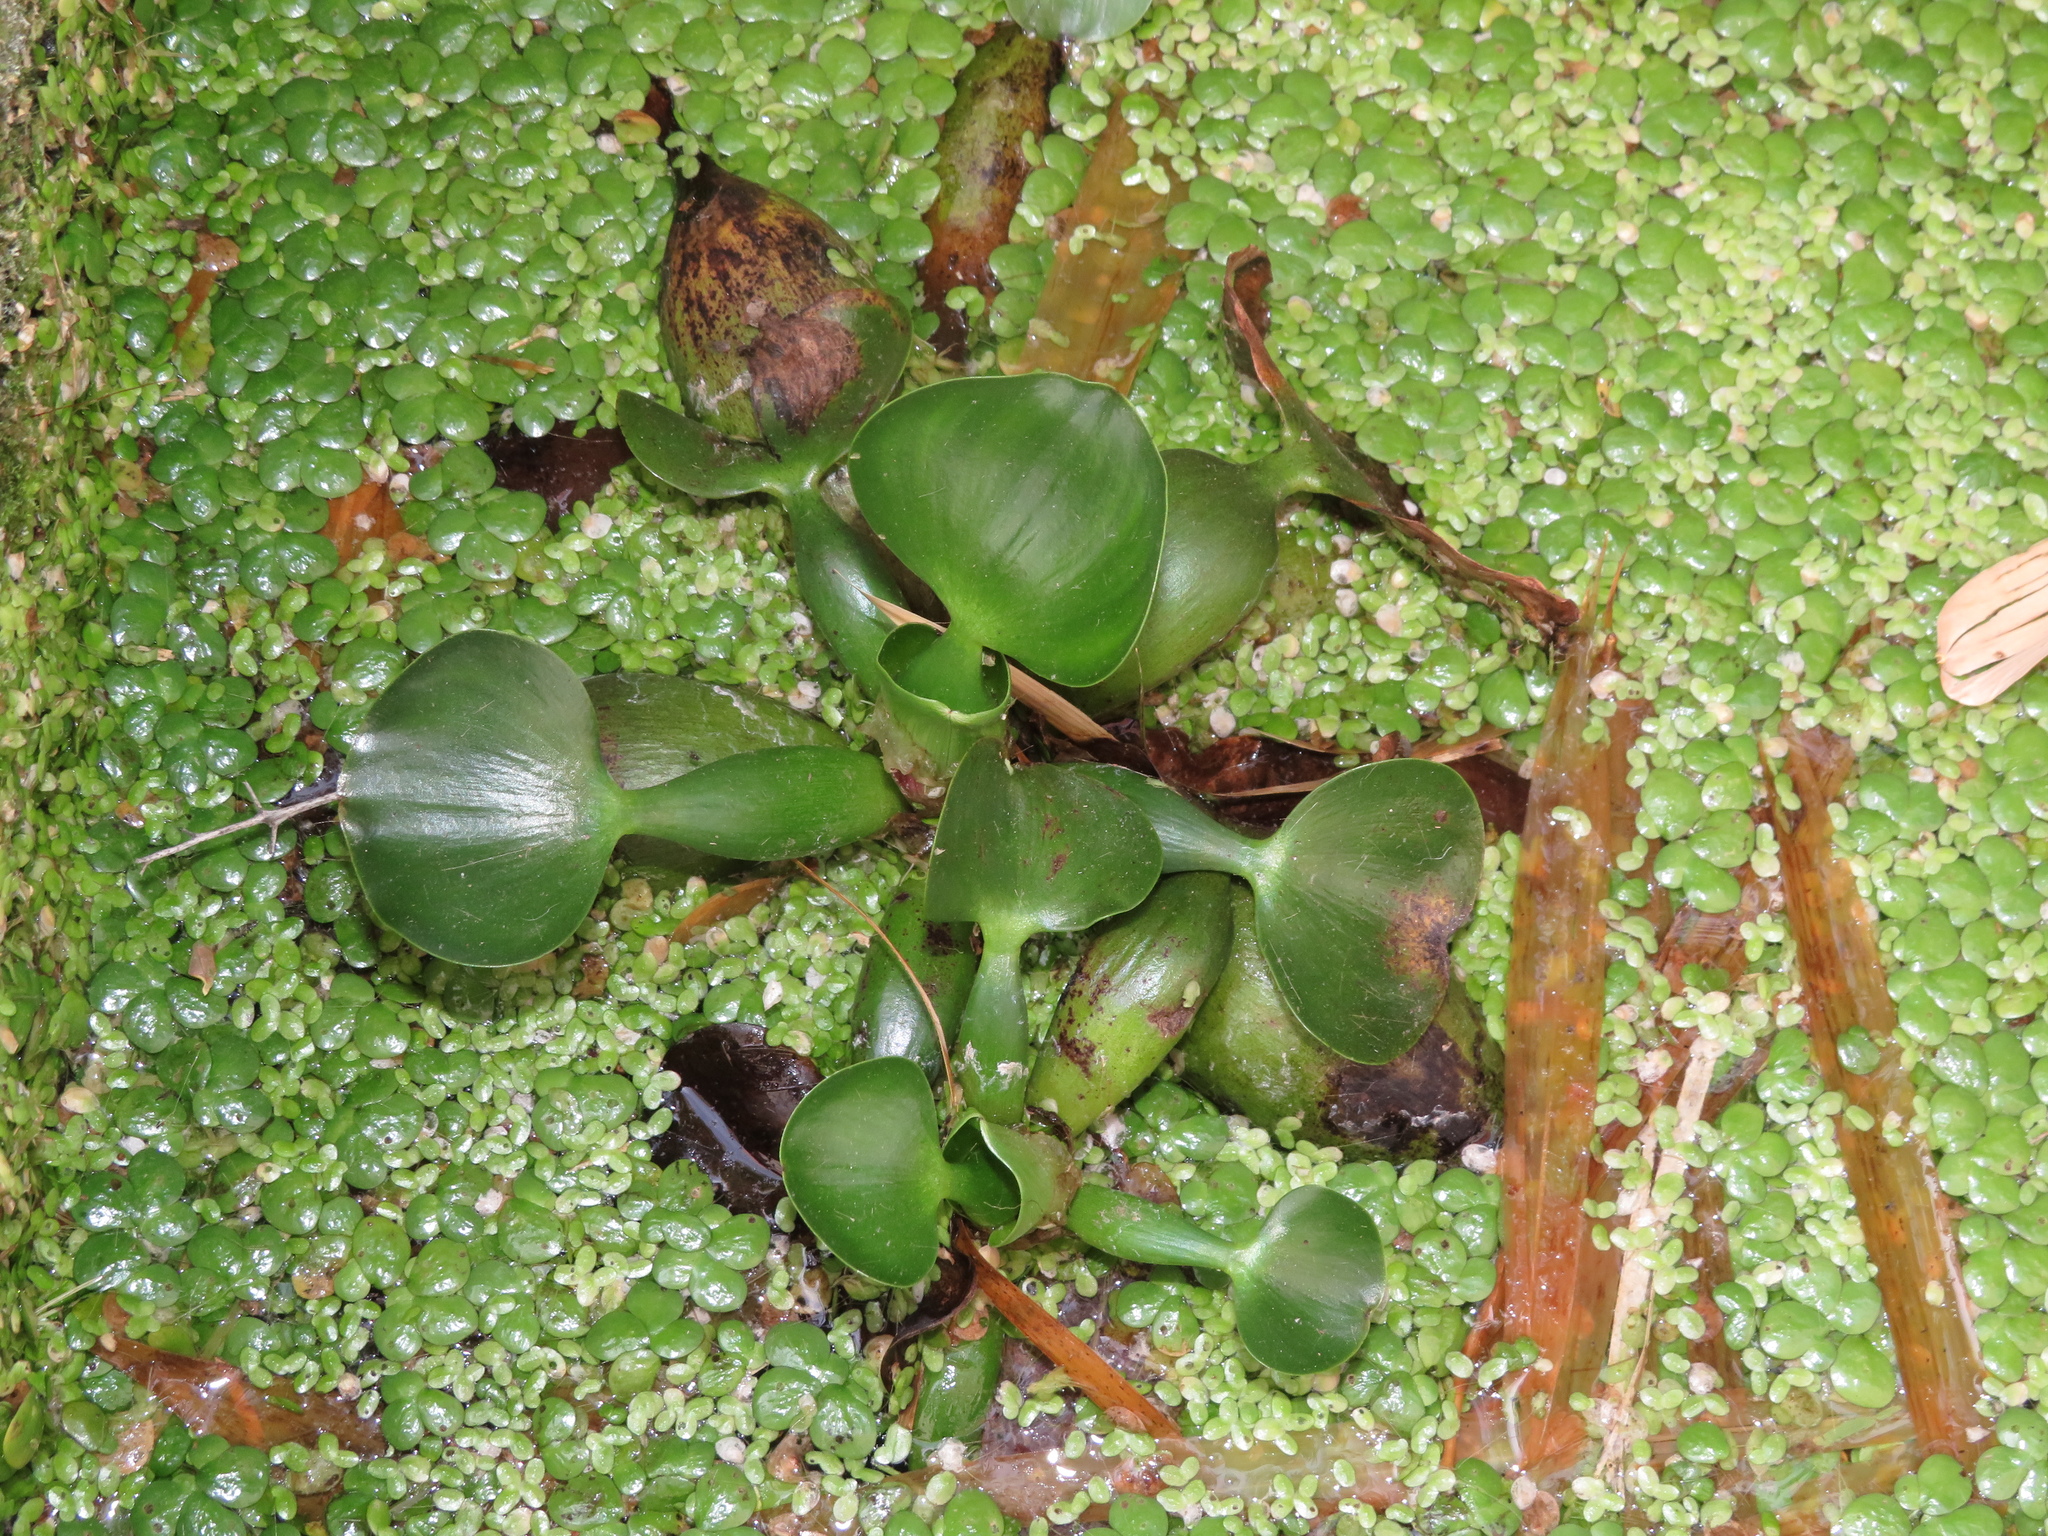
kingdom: Plantae
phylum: Tracheophyta
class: Liliopsida
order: Commelinales
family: Pontederiaceae
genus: Pontederia
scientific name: Pontederia crassipes
